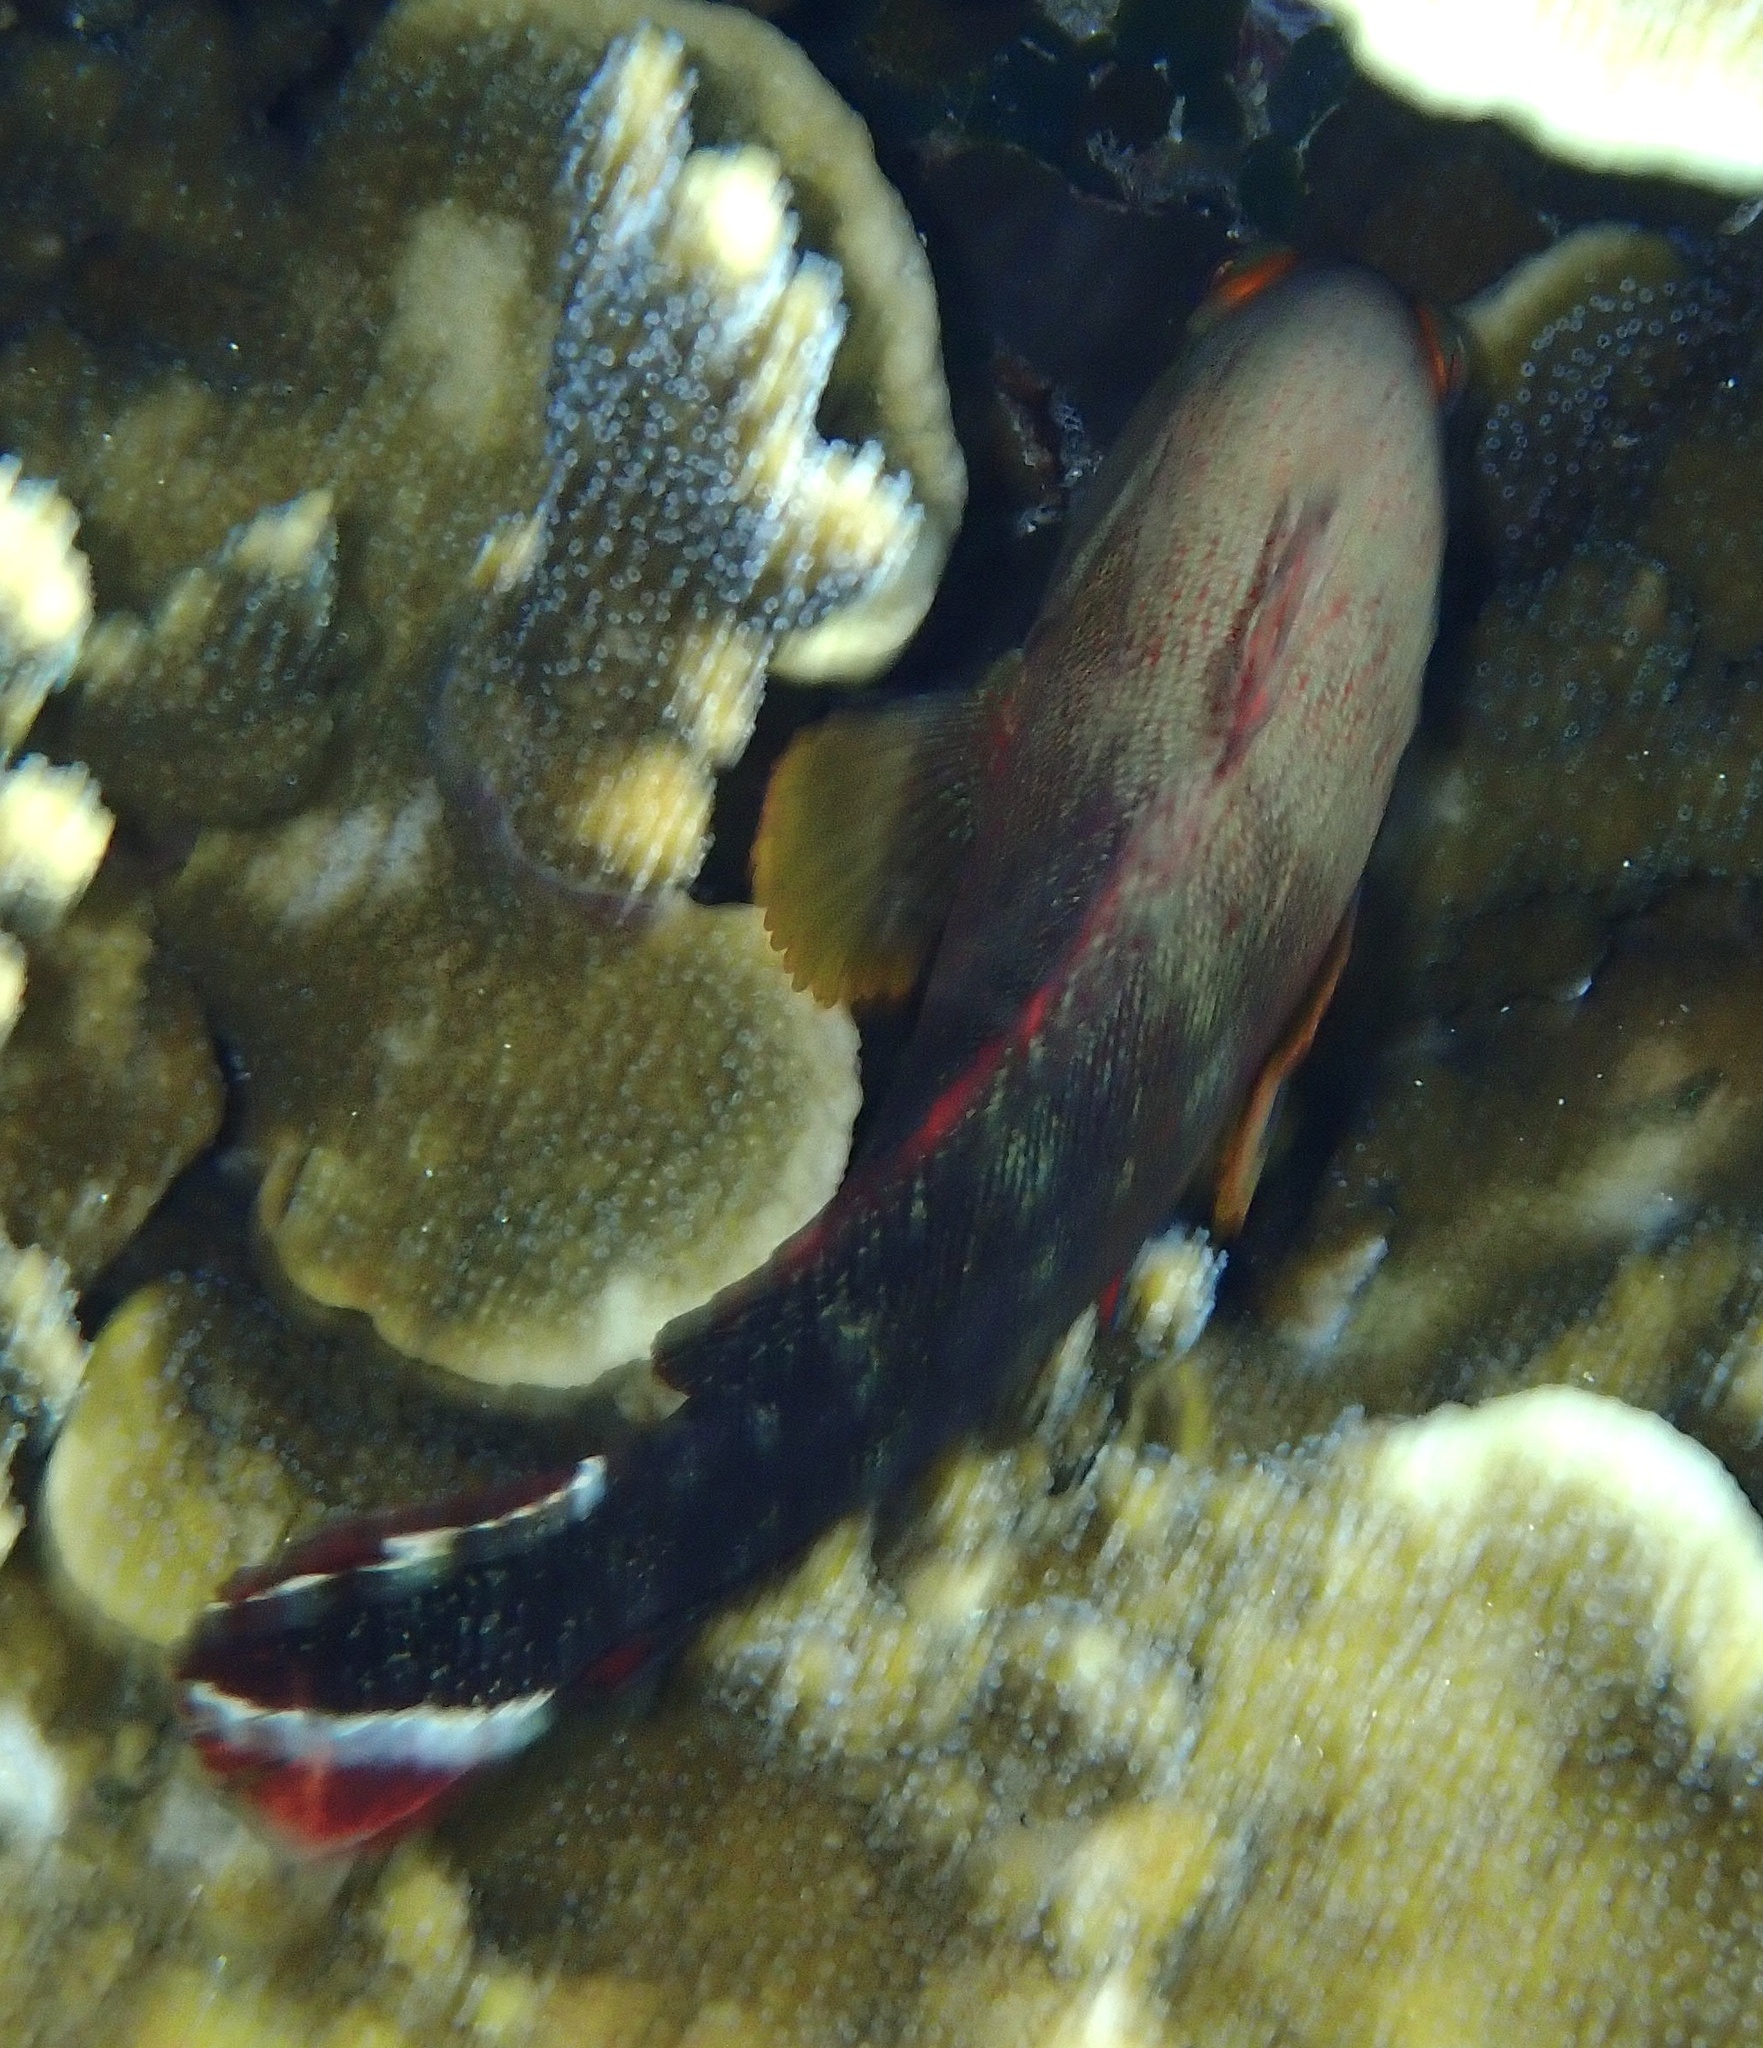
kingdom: Animalia
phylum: Chordata
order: Perciformes
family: Serranidae
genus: Cephalopholis
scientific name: Cephalopholis urodeta
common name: Darkfin hind
